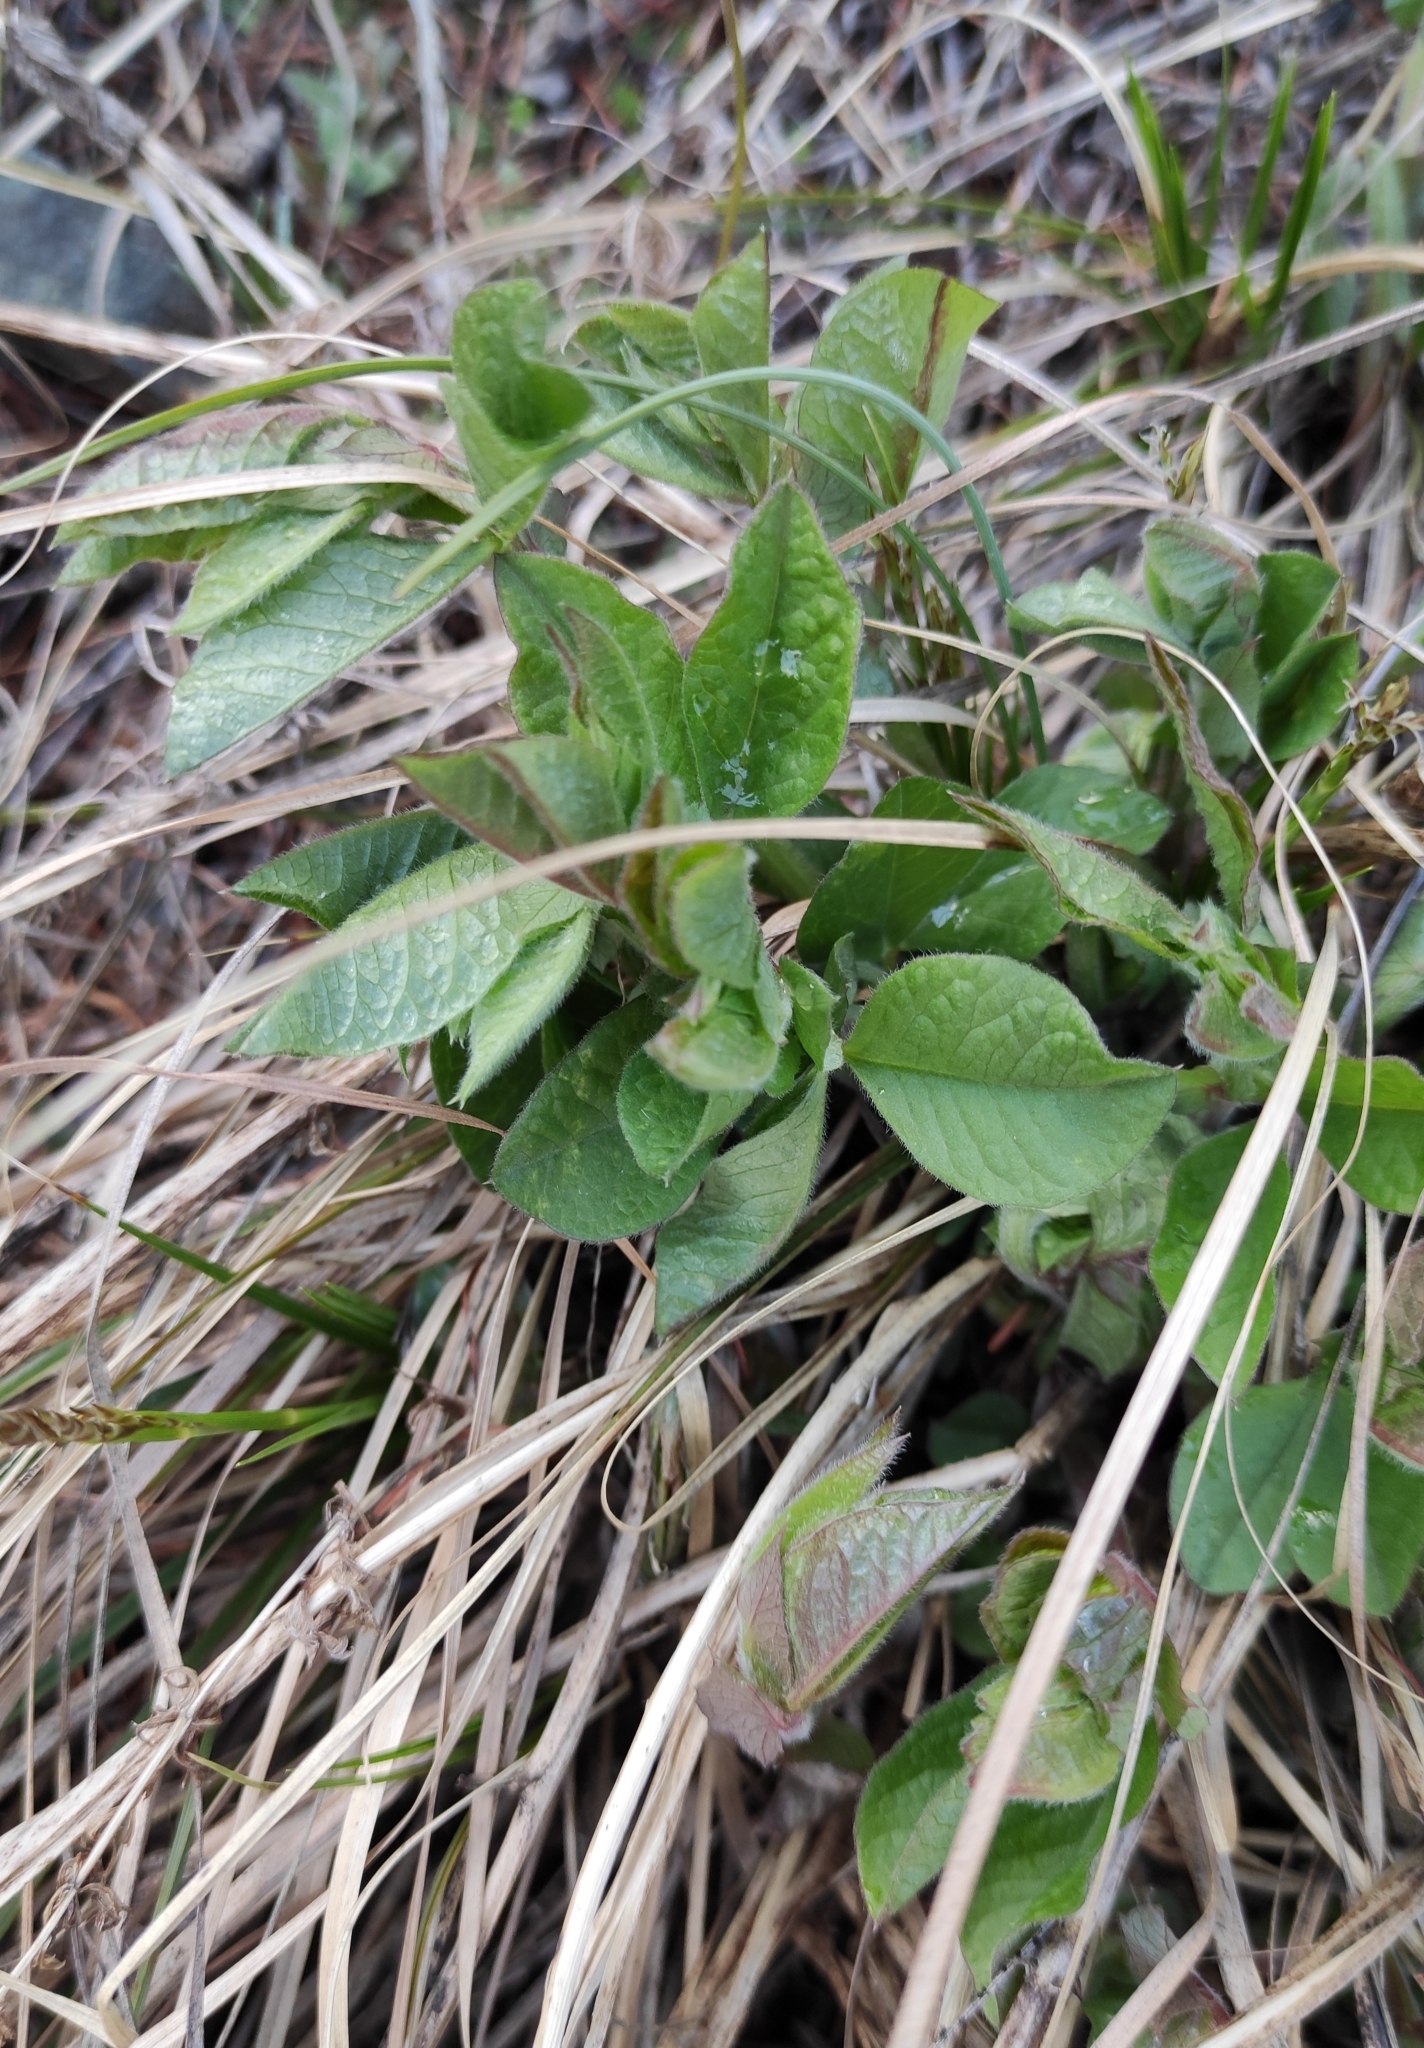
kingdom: Plantae
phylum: Tracheophyta
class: Magnoliopsida
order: Fabales
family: Fabaceae
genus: Vicia
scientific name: Vicia unijuga
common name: Two-leaf vetch
